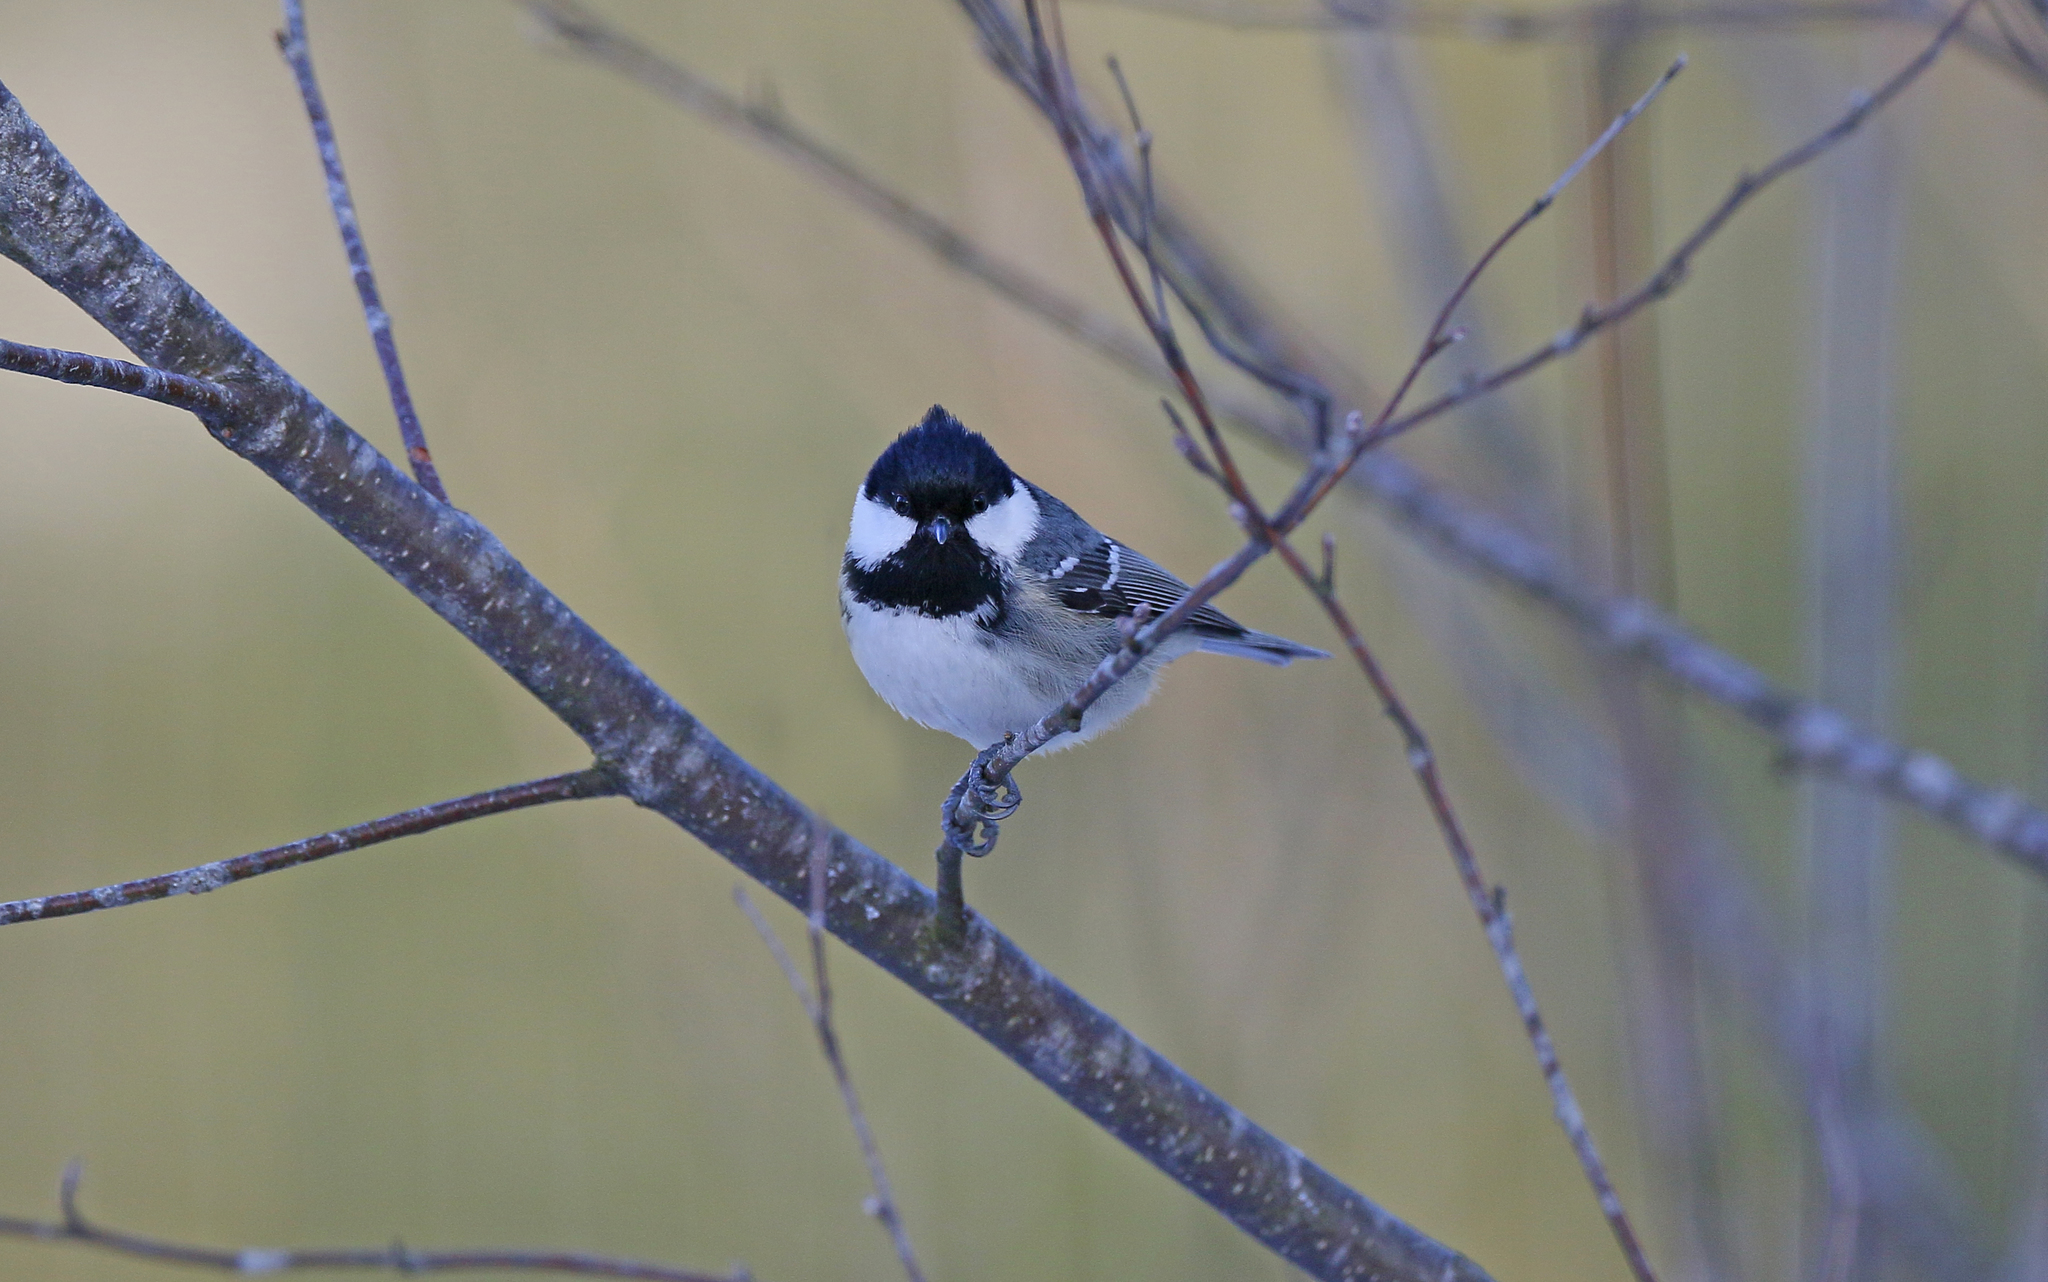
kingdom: Animalia
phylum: Chordata
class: Aves
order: Passeriformes
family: Paridae
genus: Periparus
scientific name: Periparus ater
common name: Coal tit
